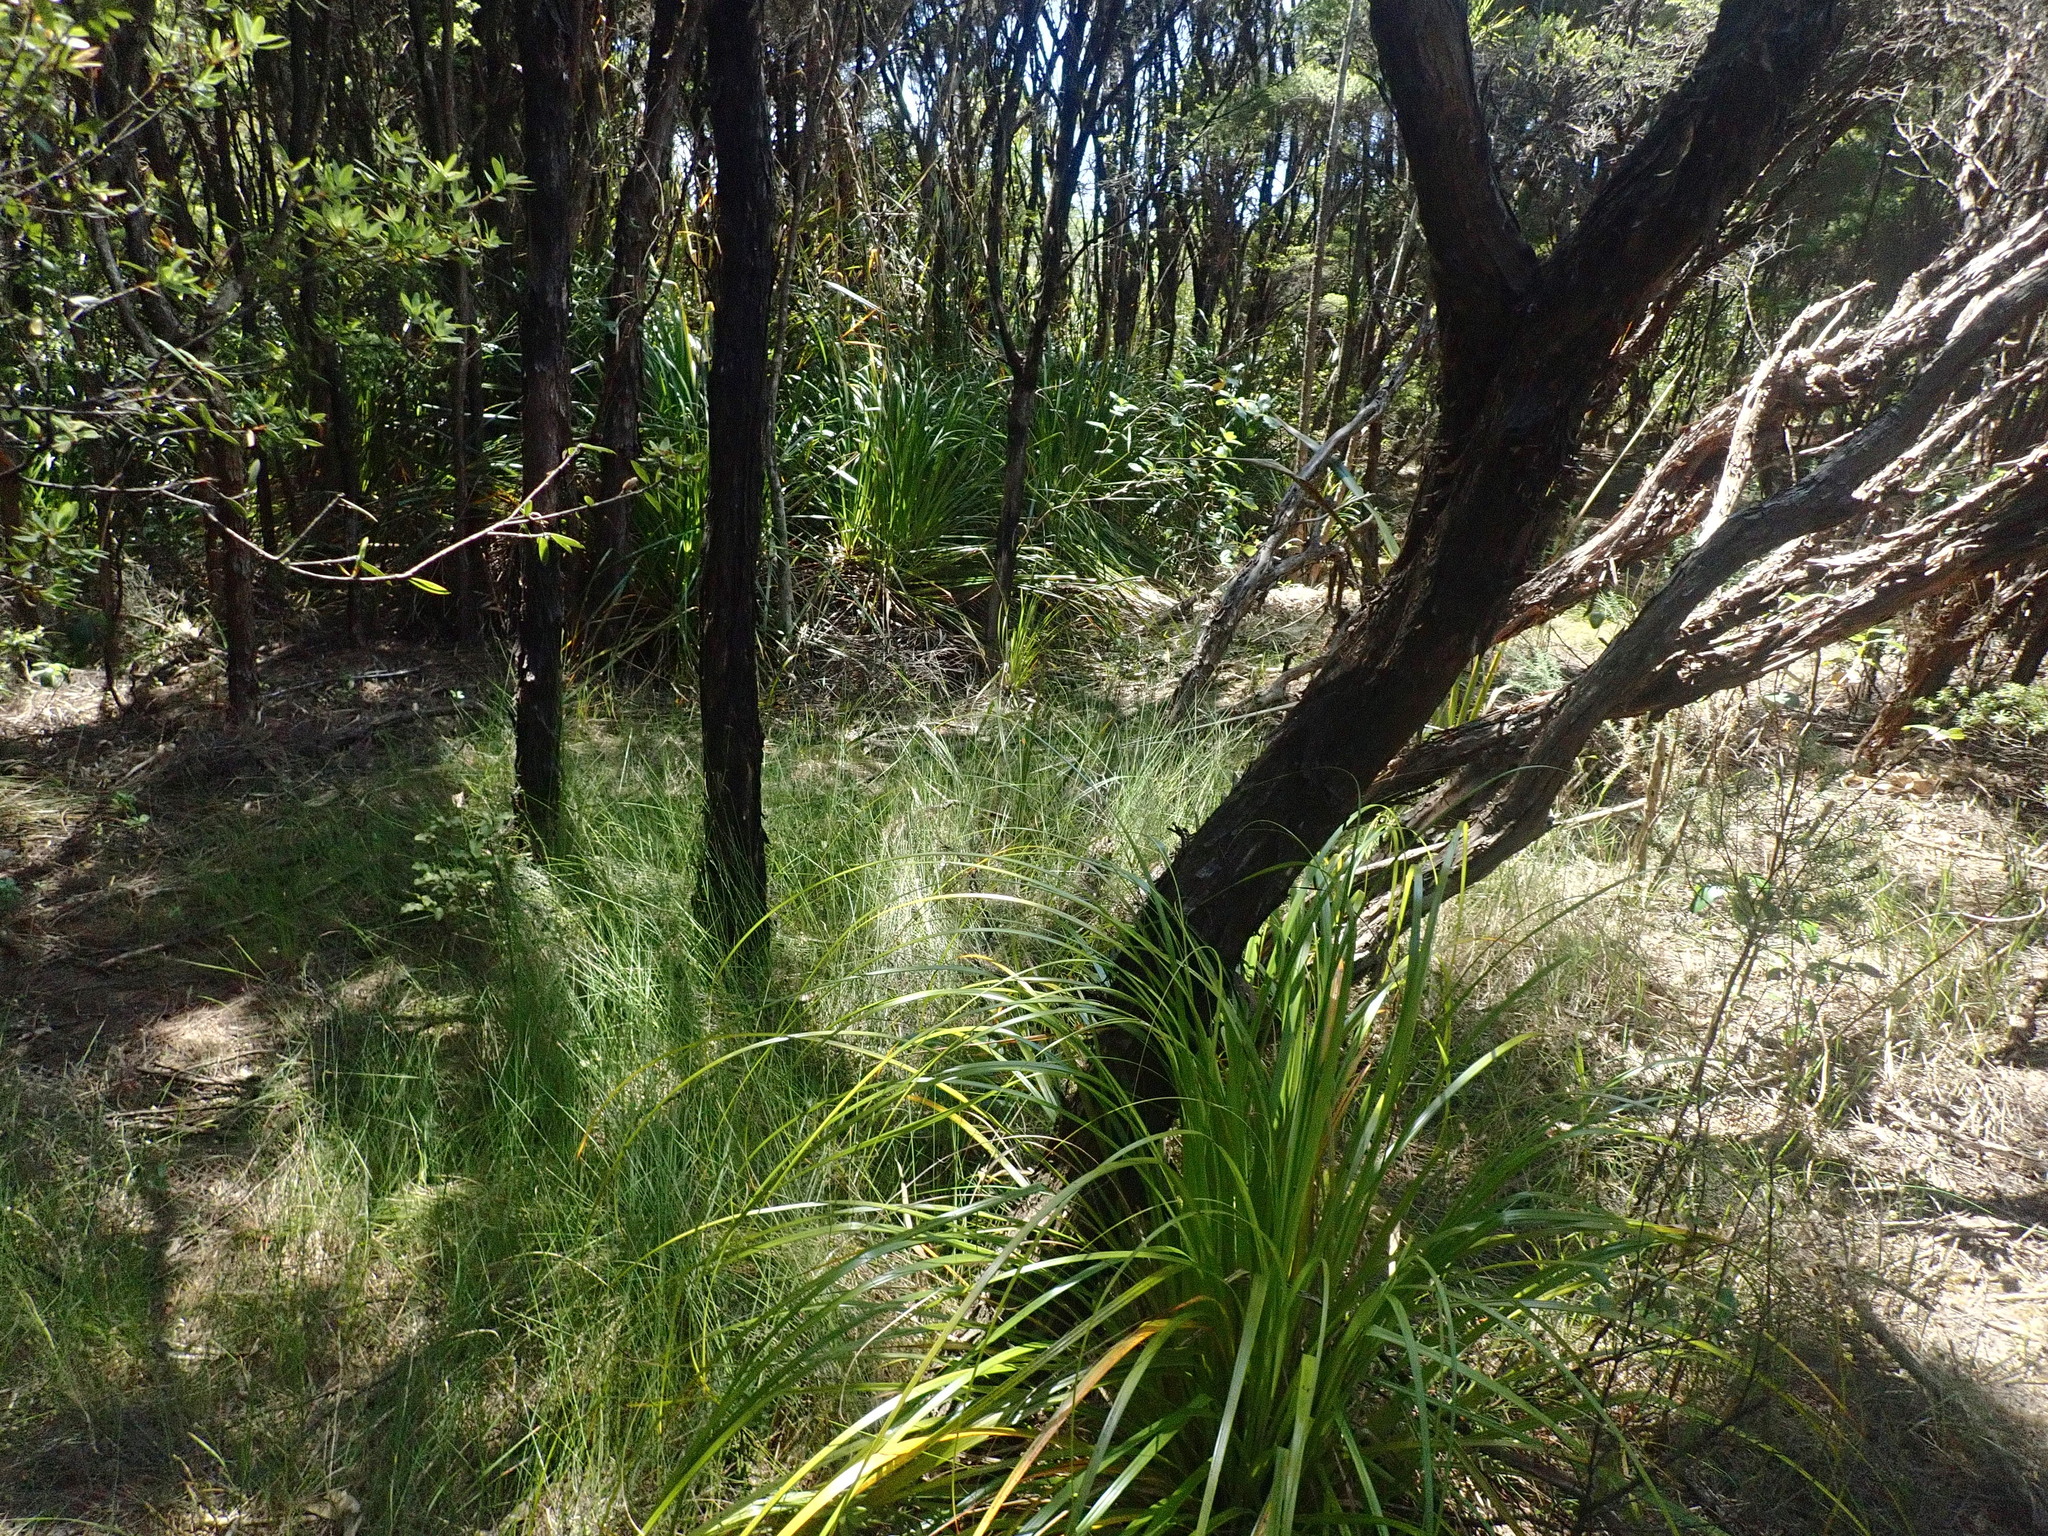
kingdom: Plantae
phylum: Tracheophyta
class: Liliopsida
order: Poales
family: Cyperaceae
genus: Gahnia
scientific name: Gahnia xanthocarpa
